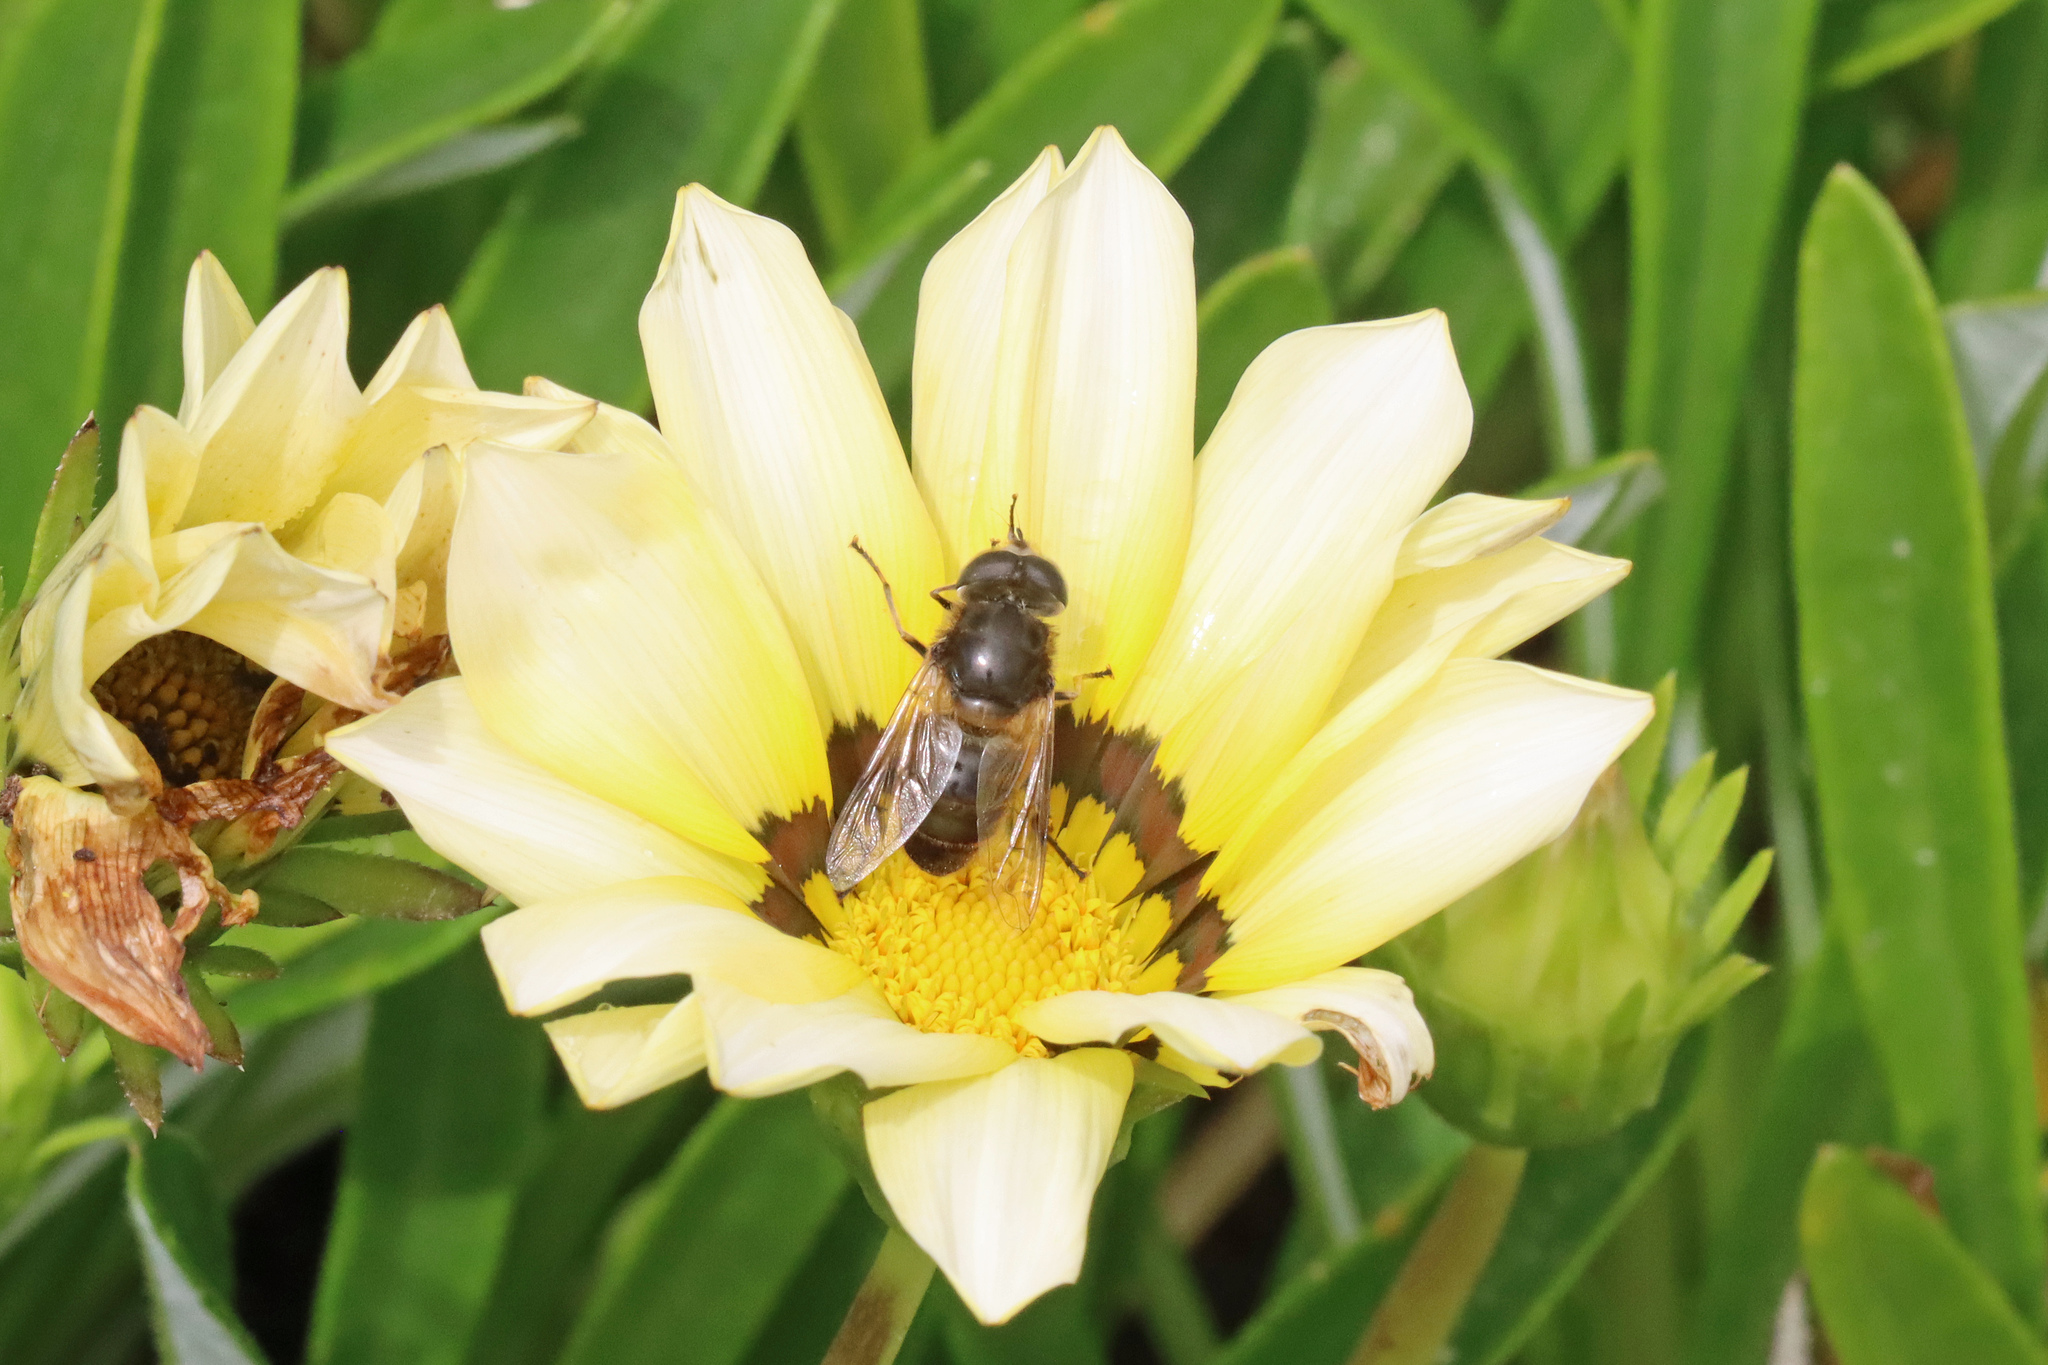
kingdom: Animalia
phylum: Arthropoda
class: Insecta
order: Diptera
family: Syrphidae
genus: Eristalis
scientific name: Eristalis tenax
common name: Drone fly
